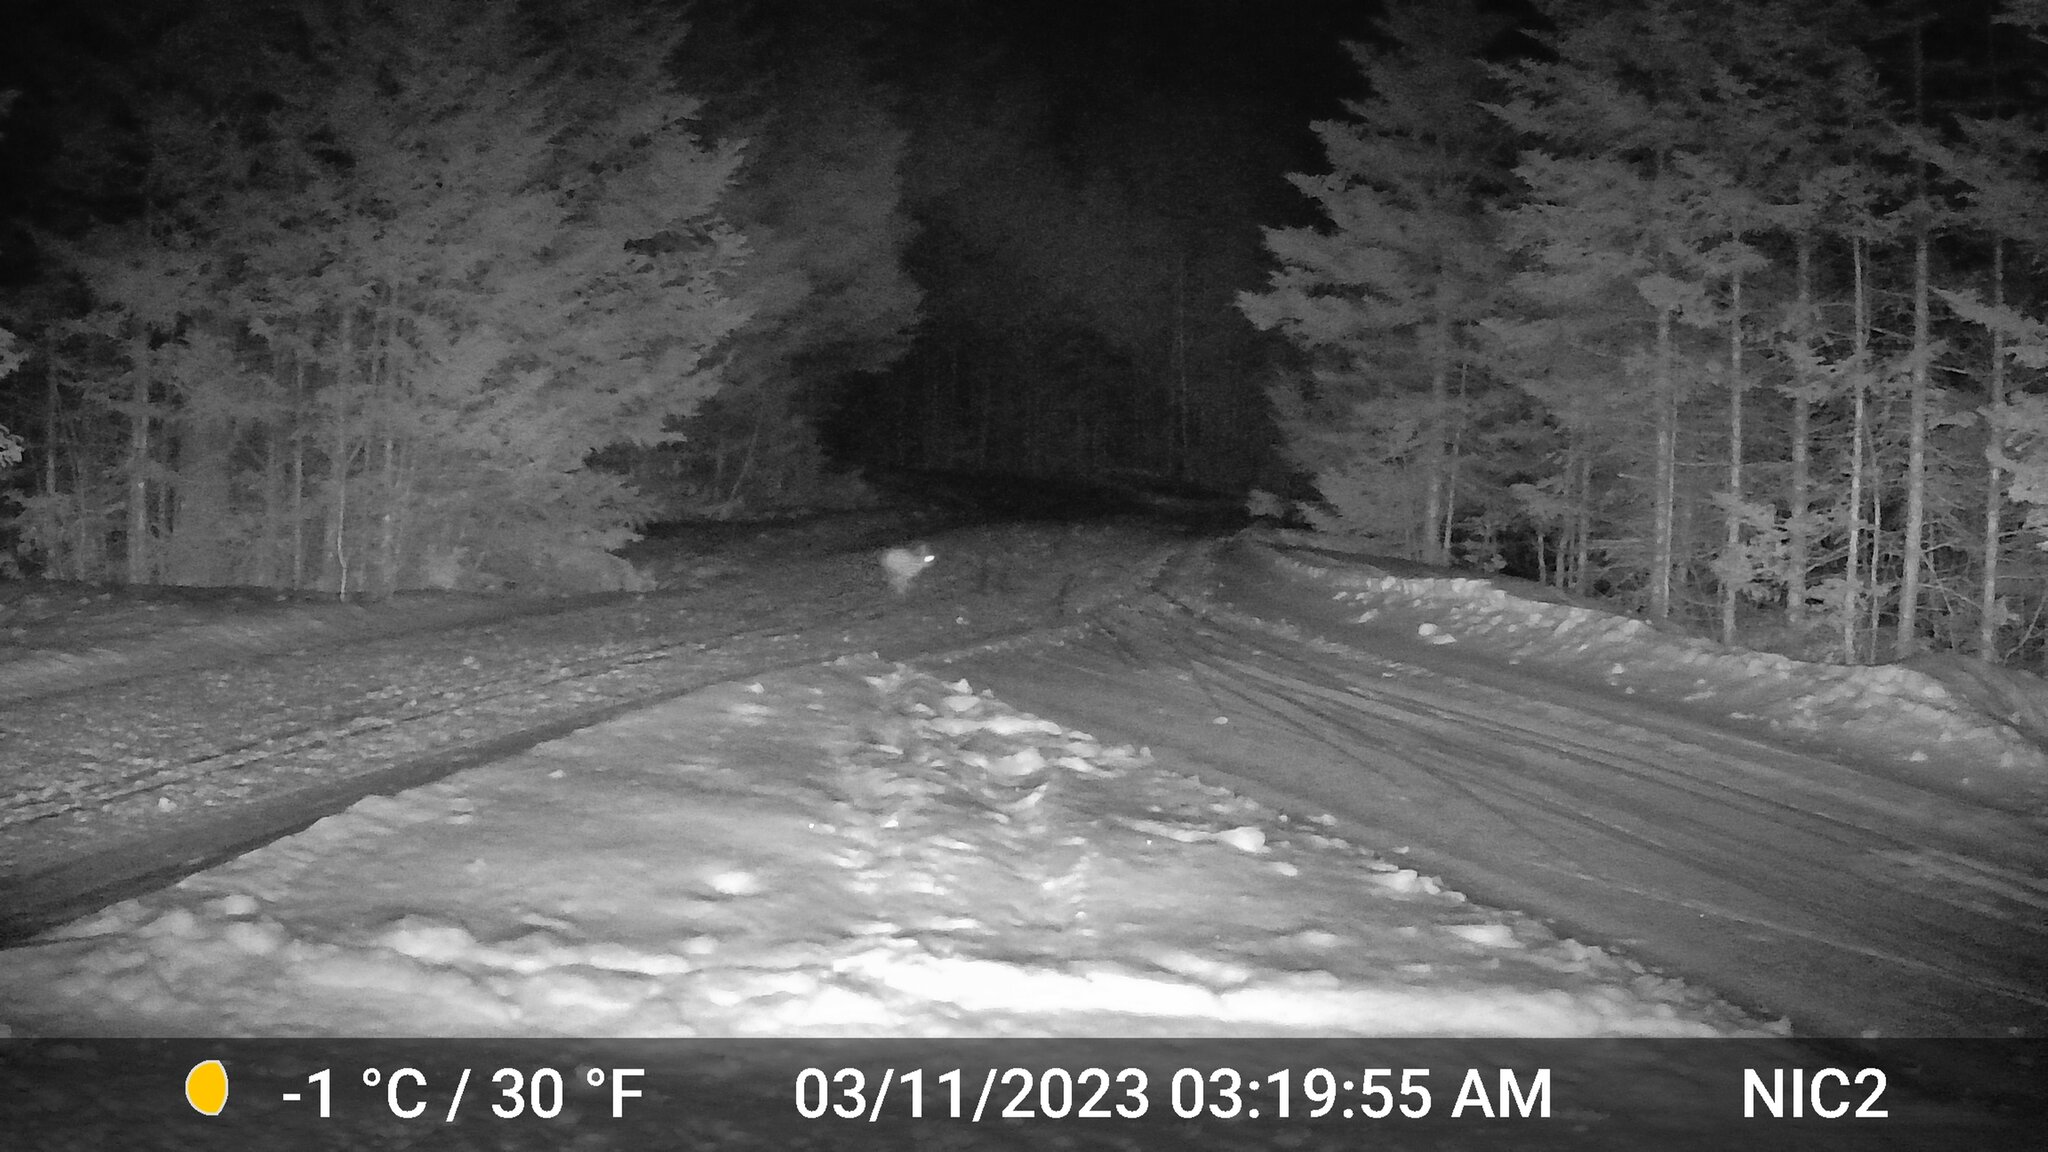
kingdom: Animalia
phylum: Chordata
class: Mammalia
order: Lagomorpha
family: Leporidae
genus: Lepus
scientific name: Lepus americanus
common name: Snowshoe hare
